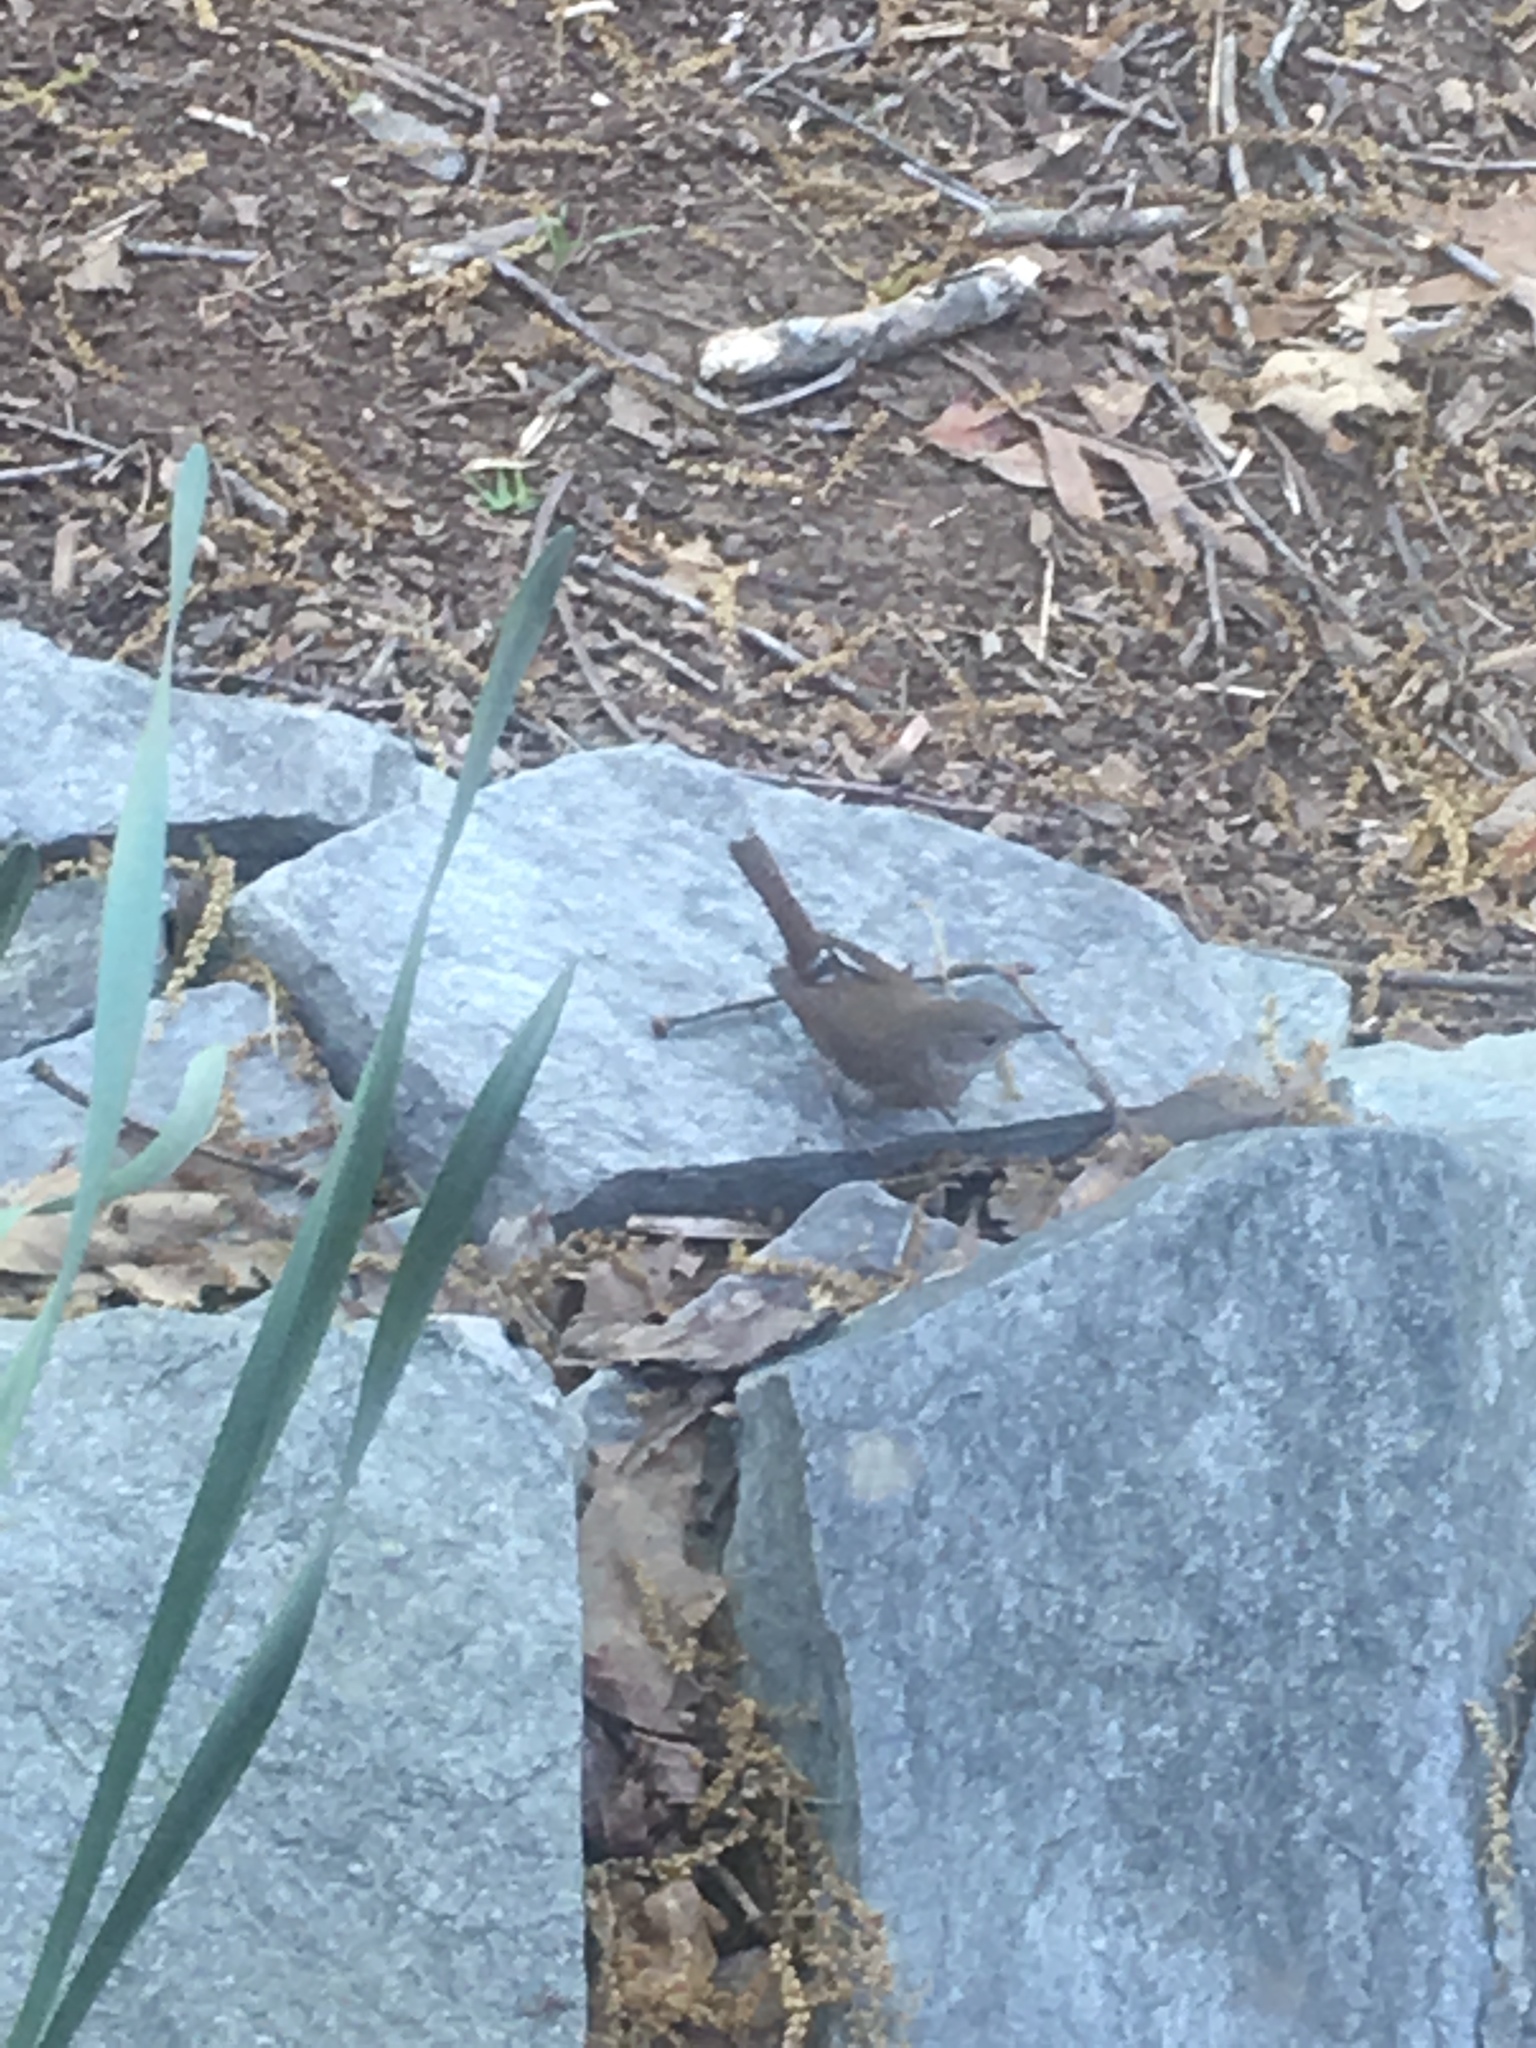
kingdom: Animalia
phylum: Chordata
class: Aves
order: Passeriformes
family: Troglodytidae
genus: Troglodytes
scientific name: Troglodytes aedon
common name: House wren
